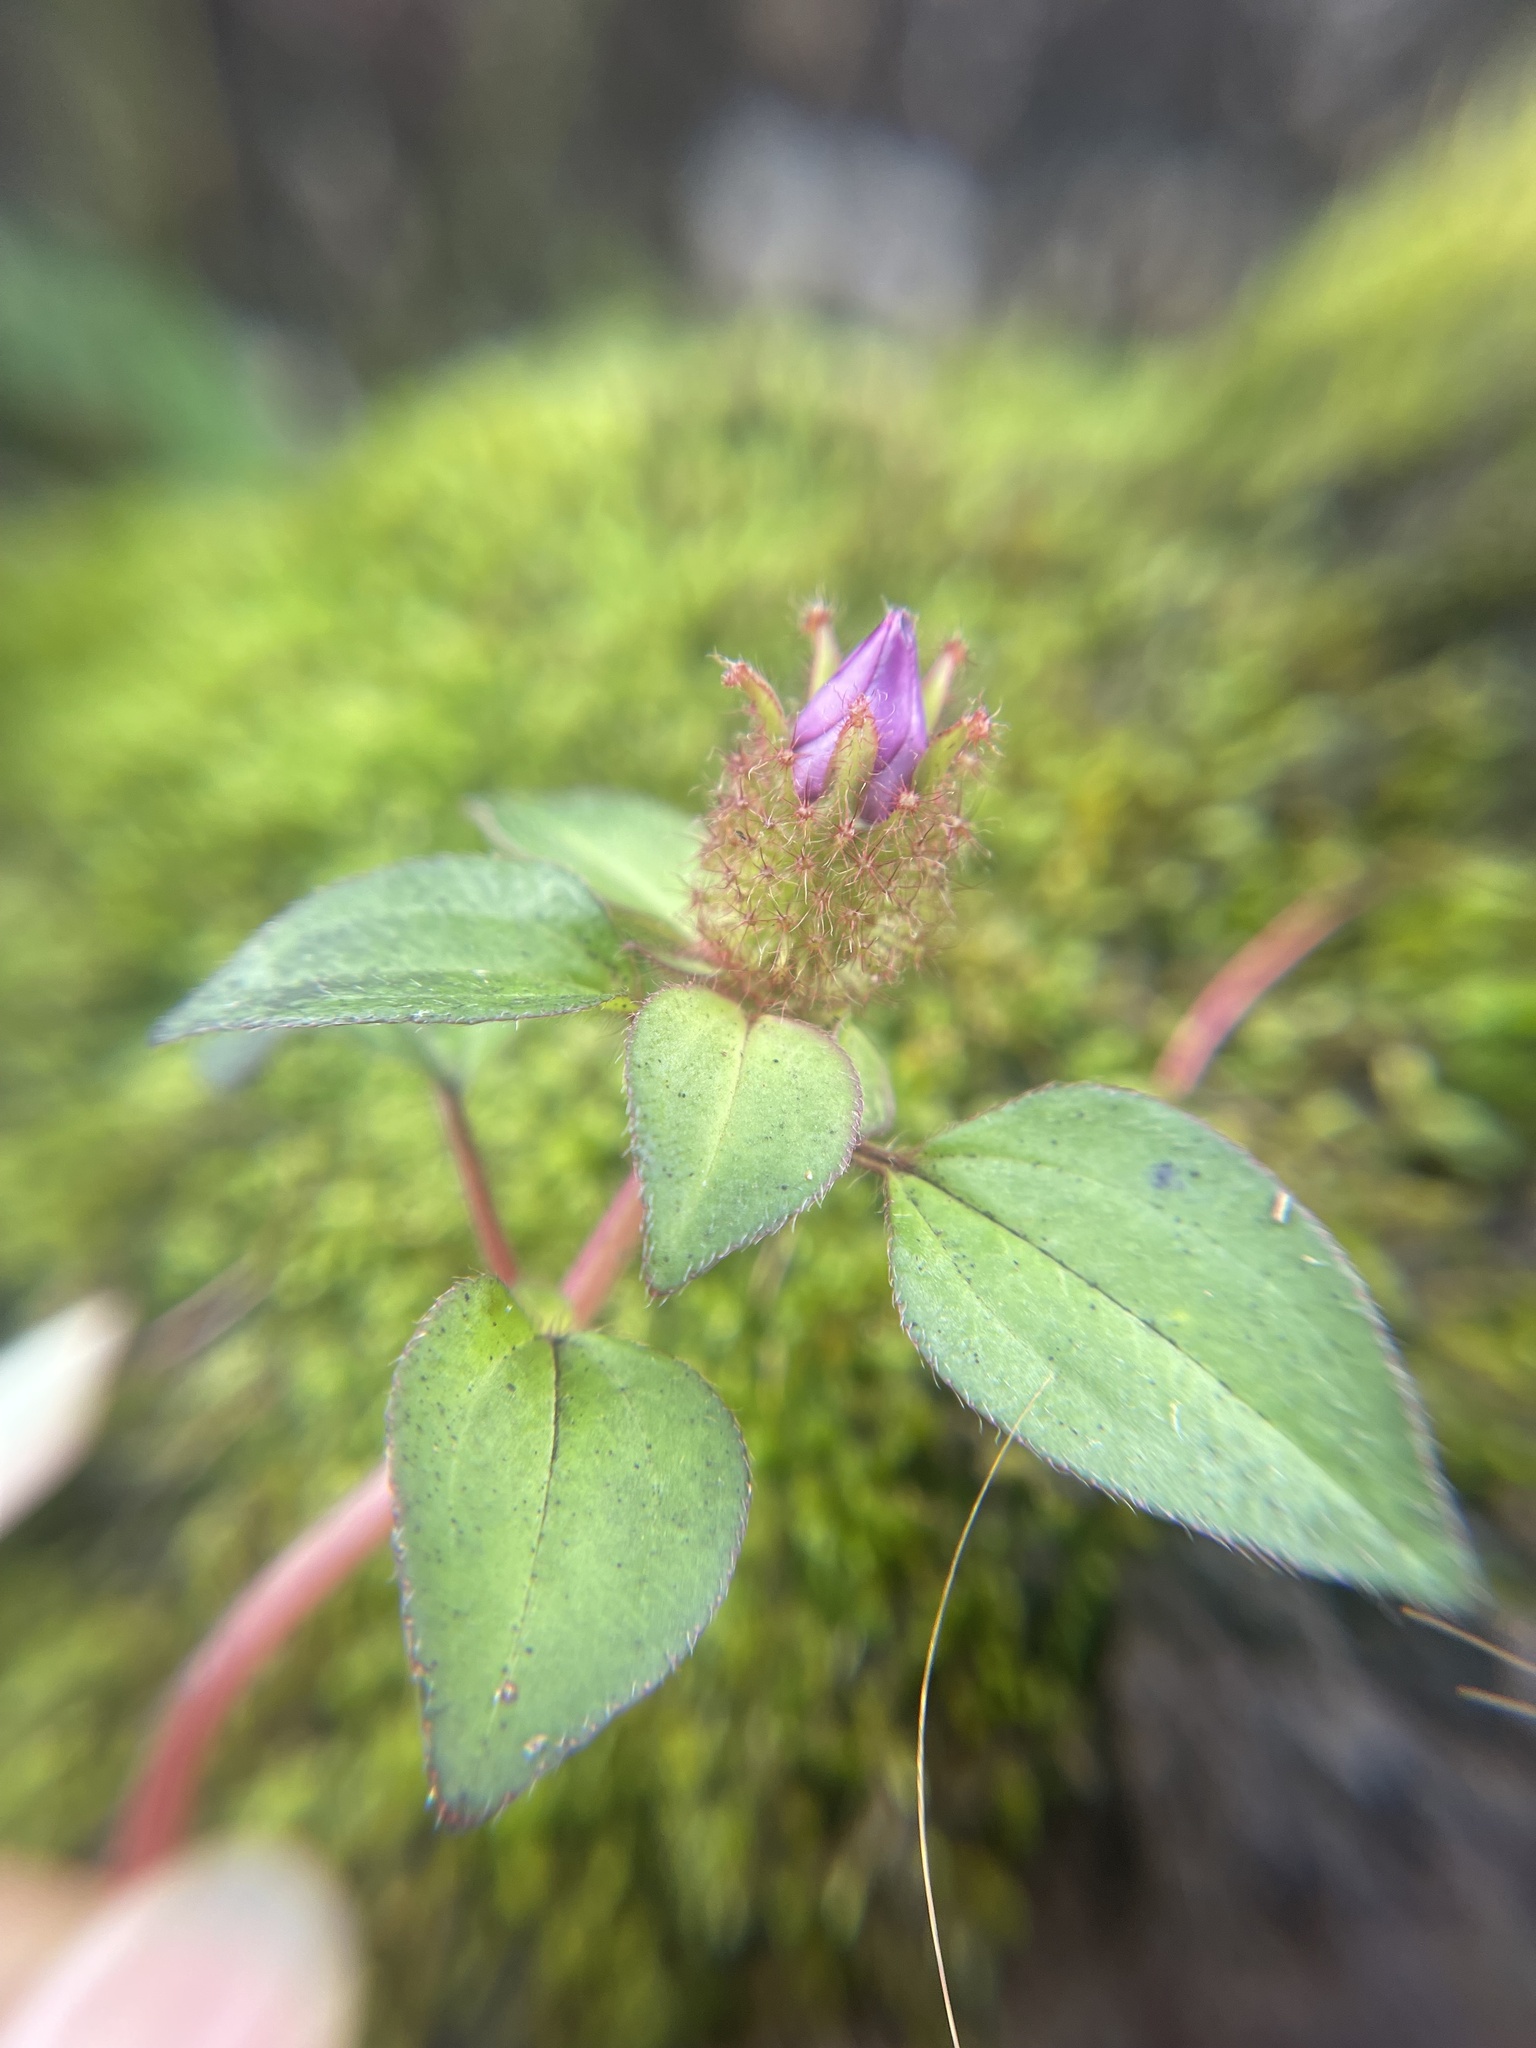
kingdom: Plantae
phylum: Tracheophyta
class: Magnoliopsida
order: Myrtales
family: Melastomataceae
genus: Heterotis
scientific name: Heterotis rotundifolia
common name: Pinklady
